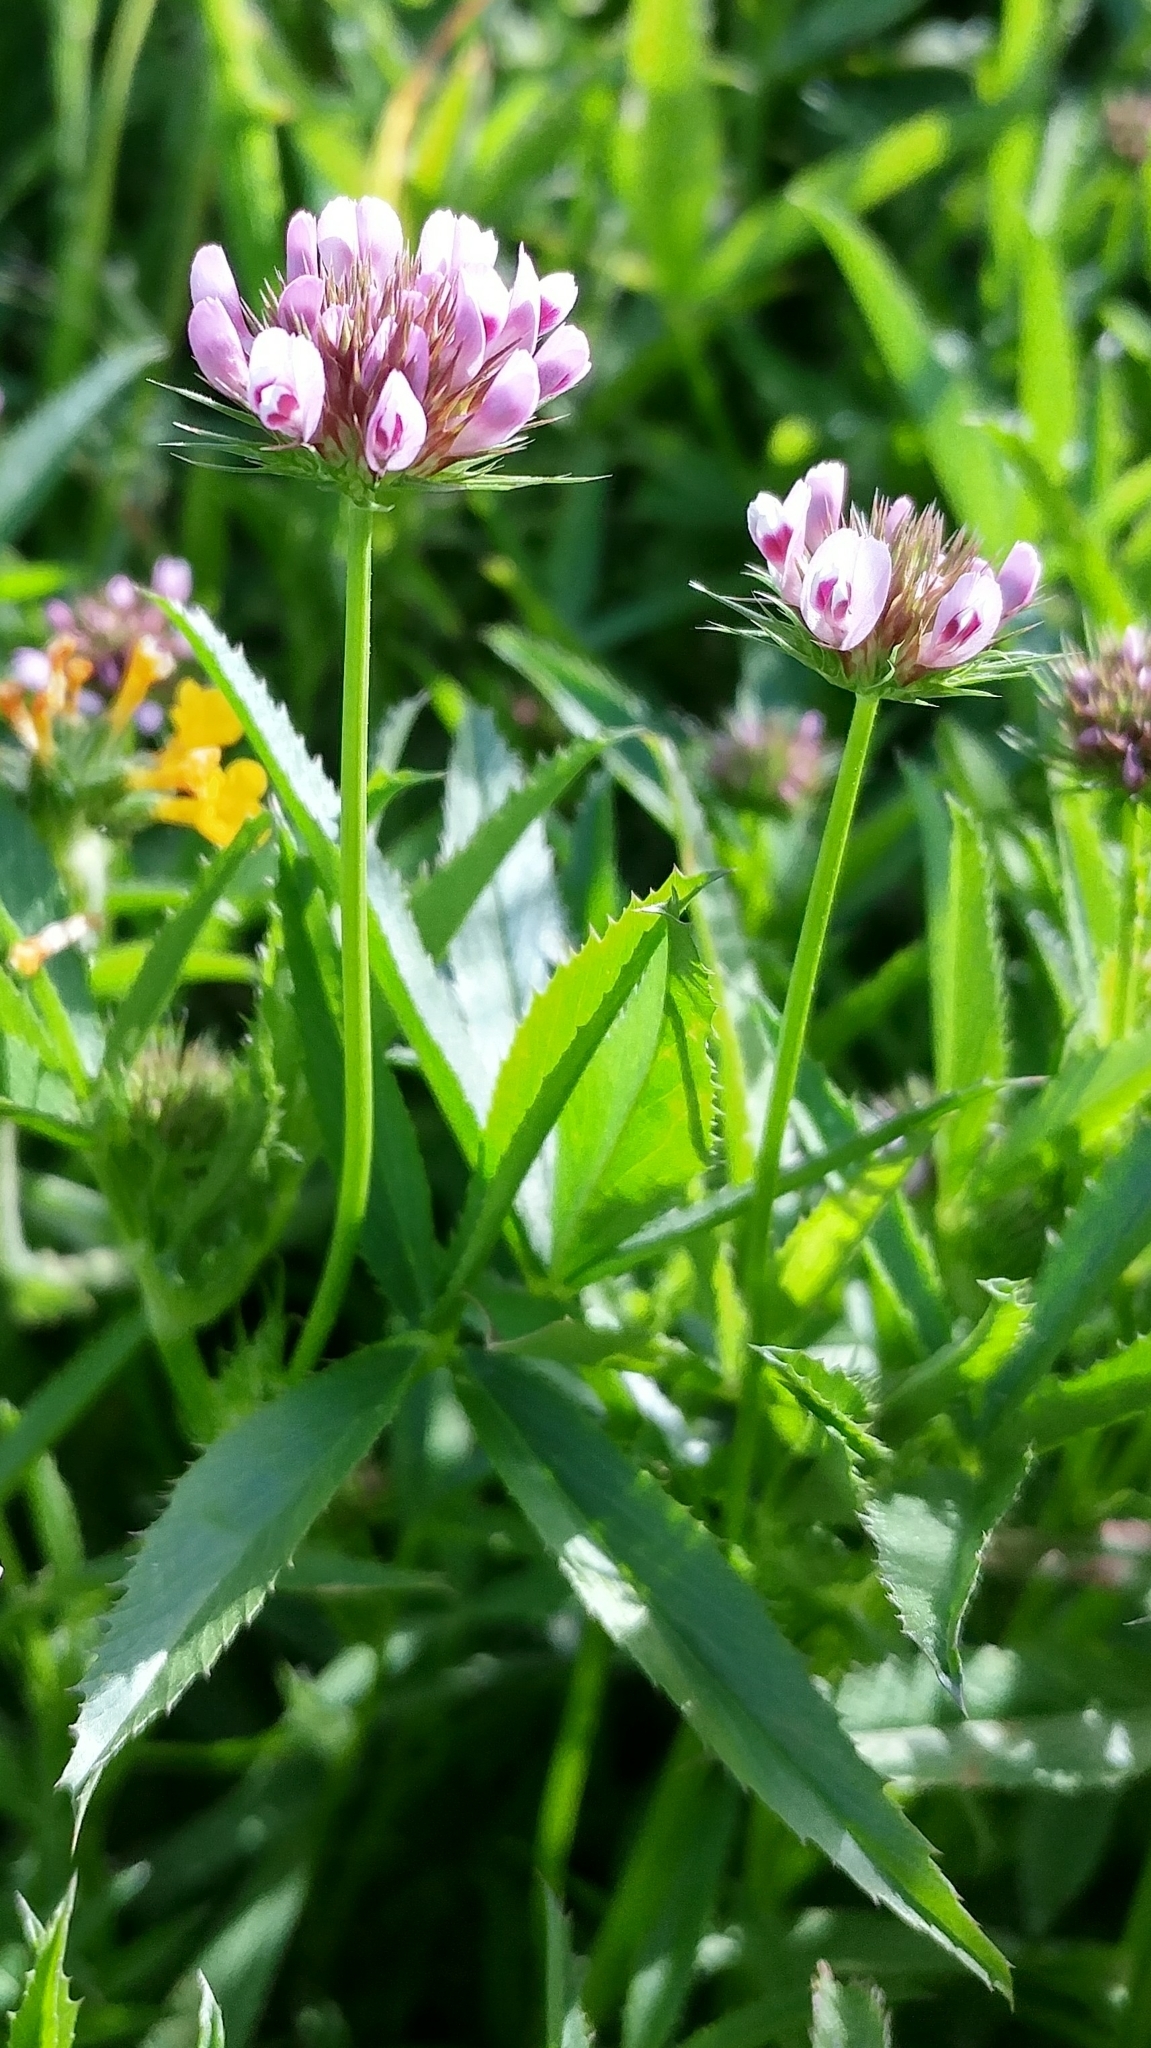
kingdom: Plantae
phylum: Tracheophyta
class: Magnoliopsida
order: Fabales
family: Fabaceae
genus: Trifolium
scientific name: Trifolium willdenovii
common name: Tomcat clover
